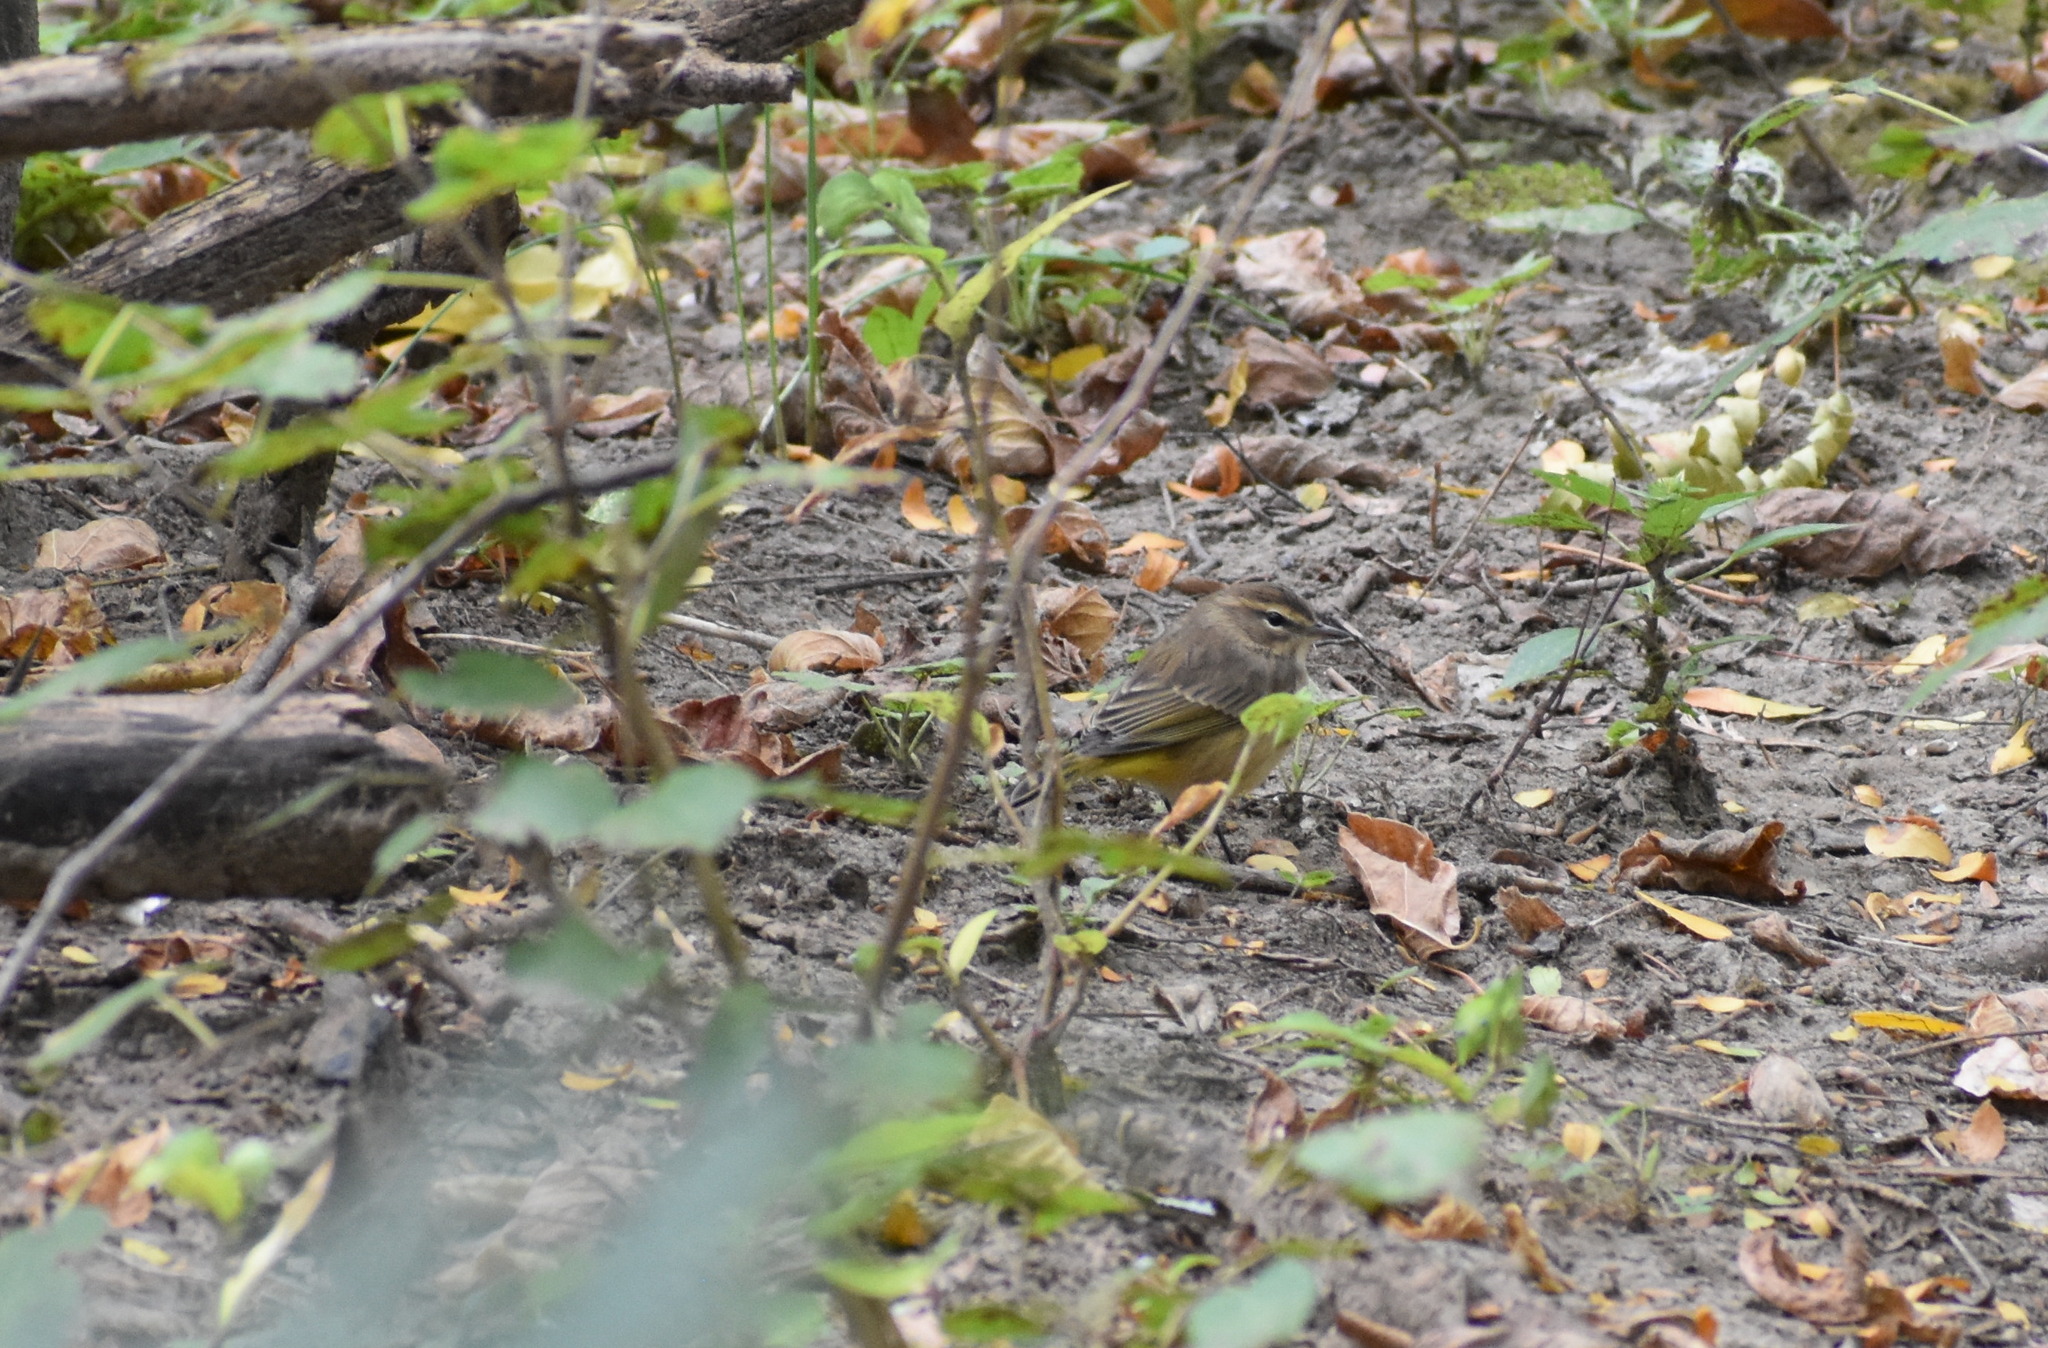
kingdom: Animalia
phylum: Chordata
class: Aves
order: Passeriformes
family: Parulidae
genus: Setophaga
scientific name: Setophaga palmarum
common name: Palm warbler
